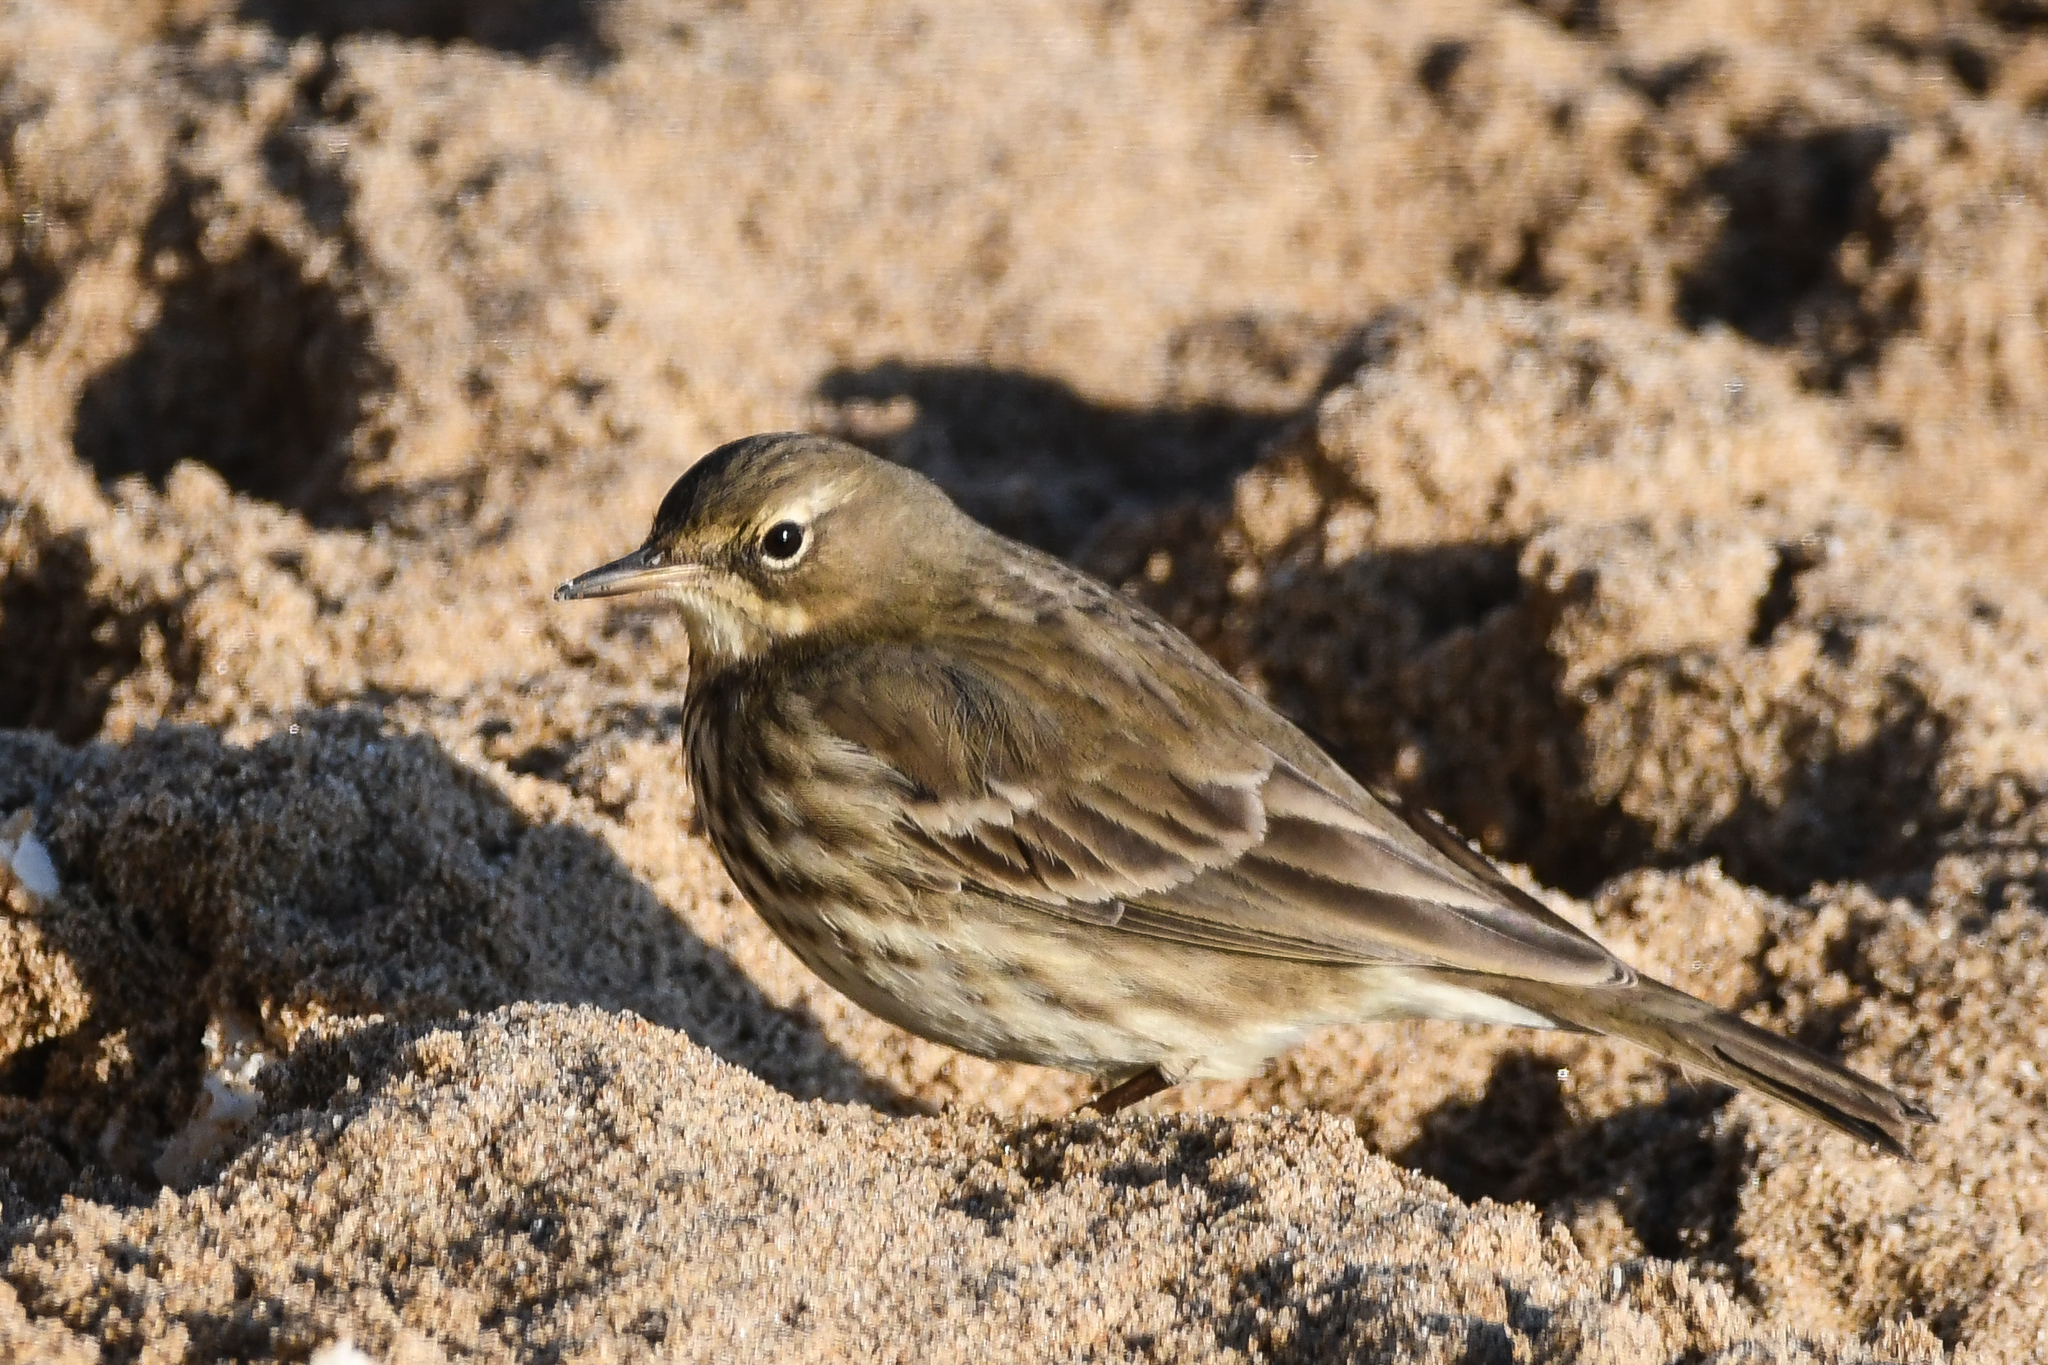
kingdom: Animalia
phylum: Chordata
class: Aves
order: Passeriformes
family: Motacillidae
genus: Anthus
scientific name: Anthus petrosus
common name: Eurasian rock pipit
